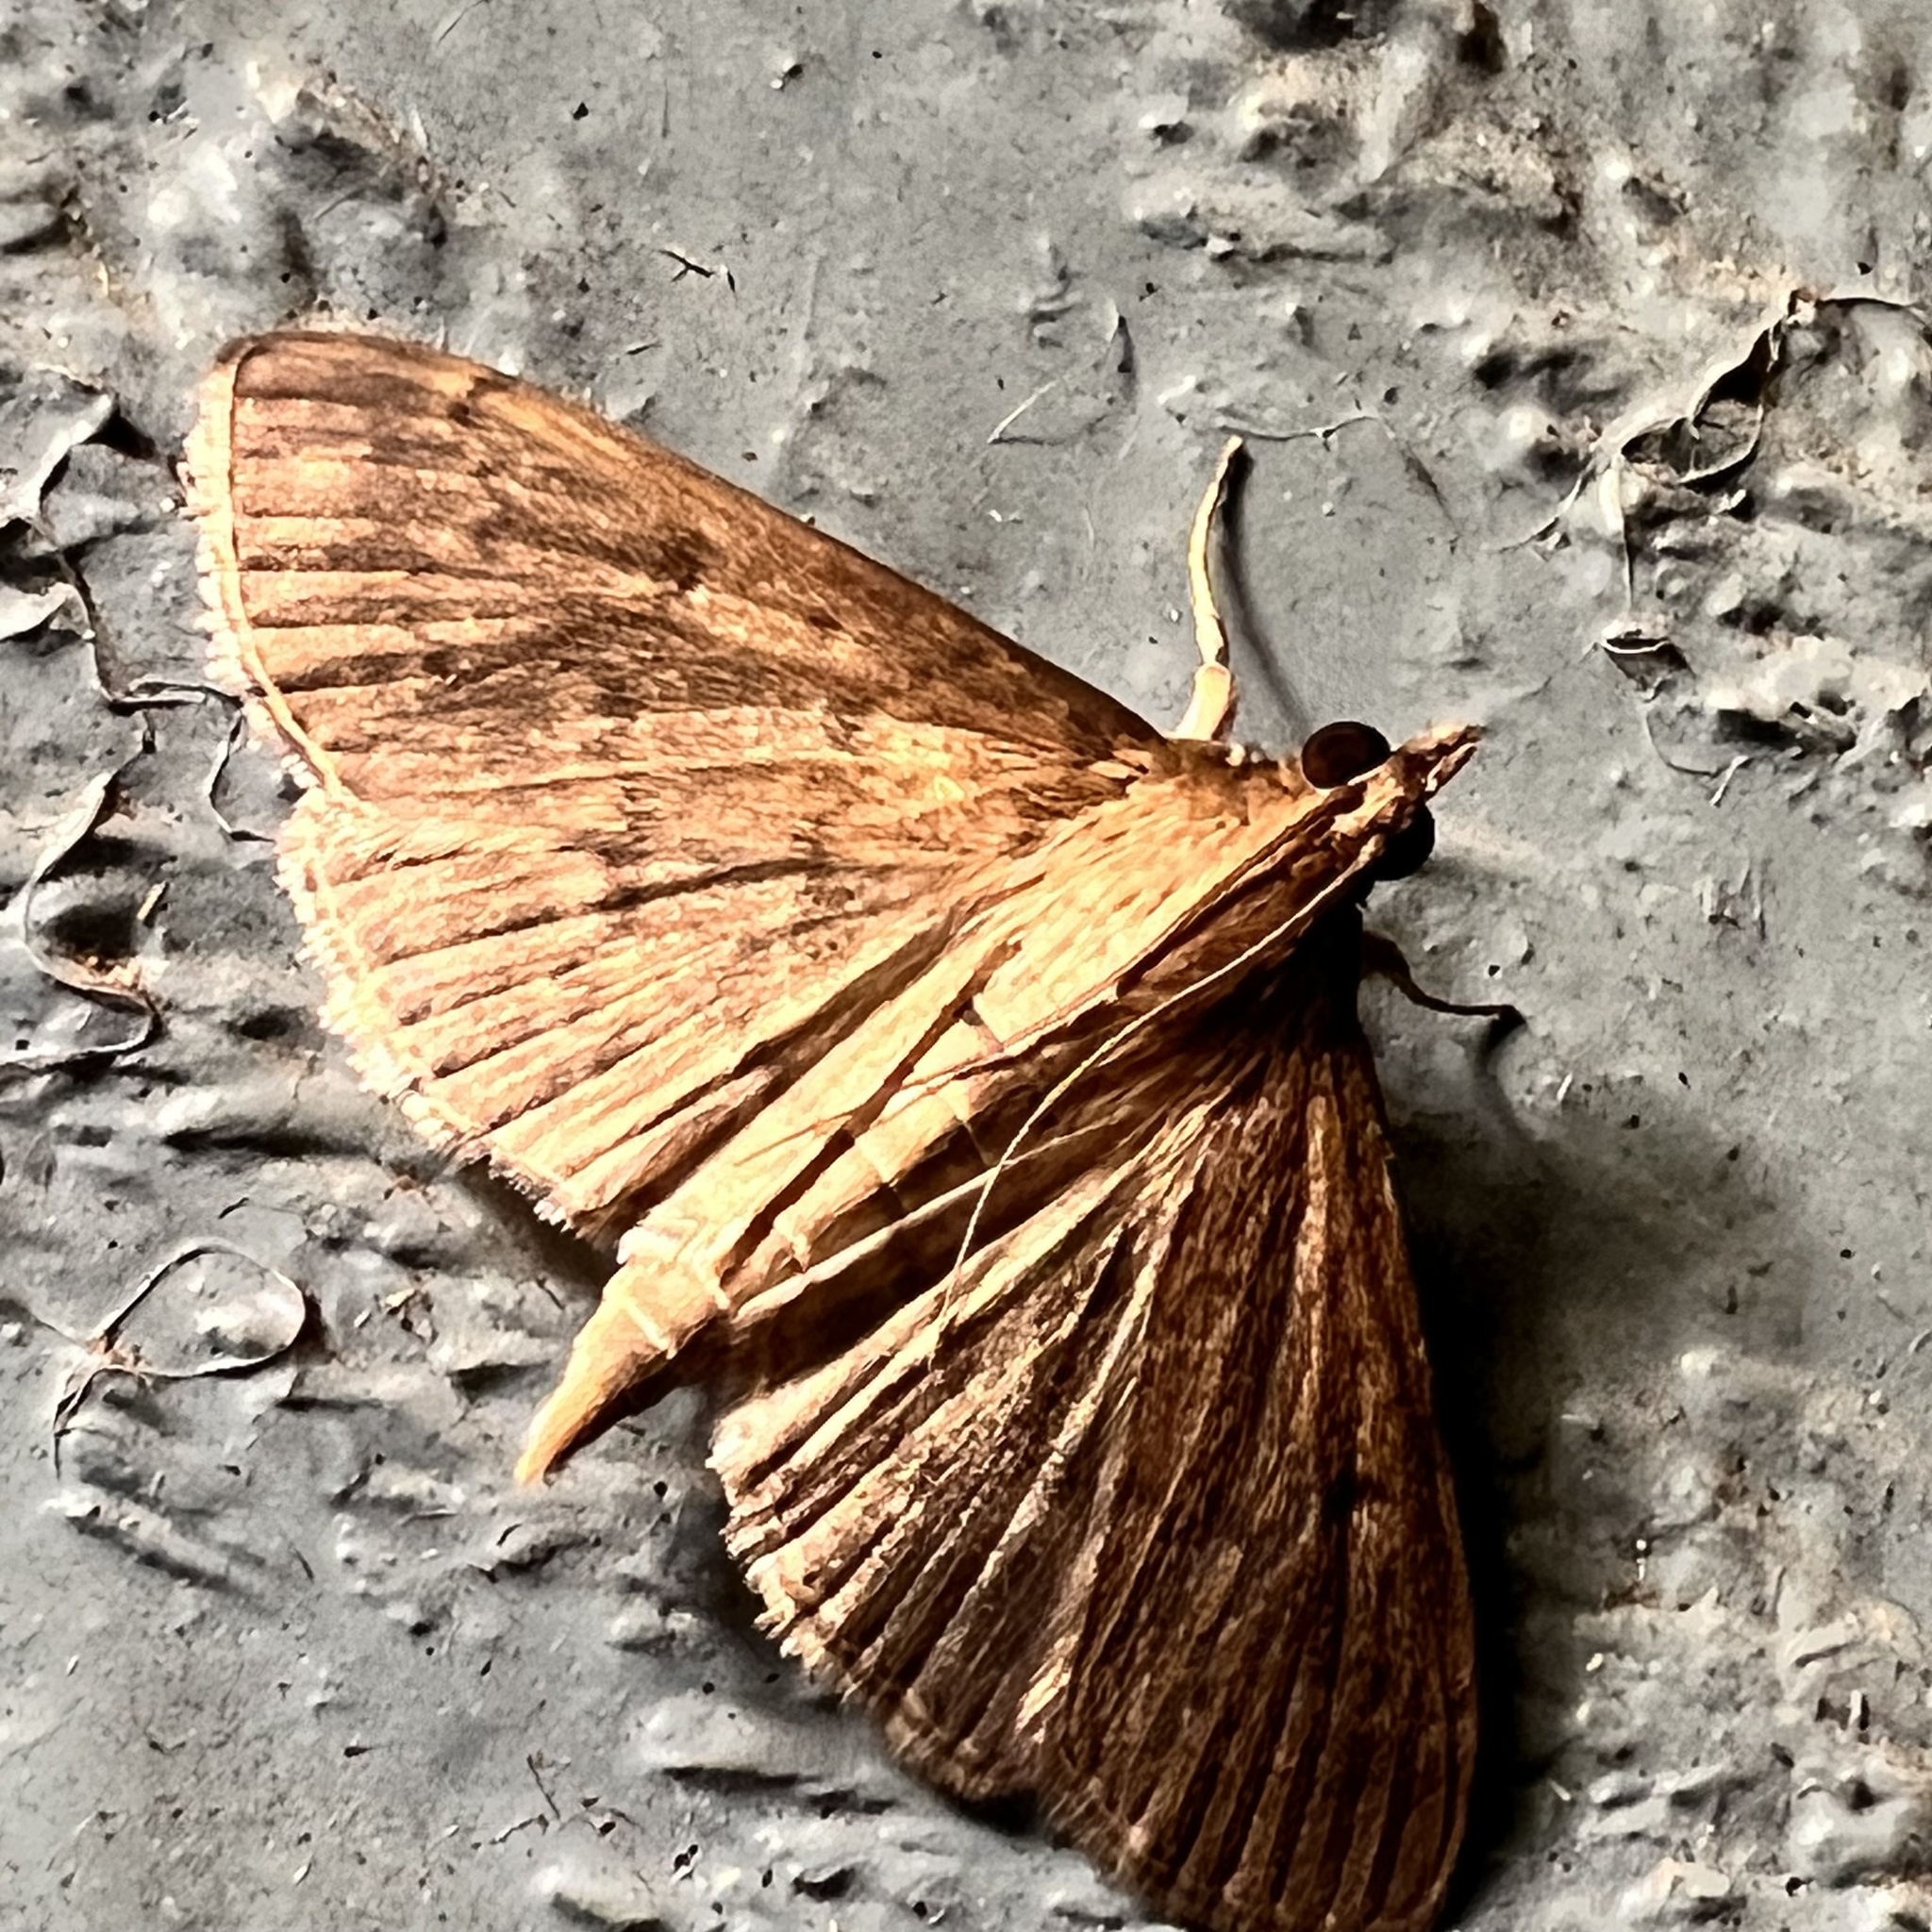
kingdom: Animalia
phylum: Arthropoda
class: Insecta
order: Lepidoptera
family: Crambidae
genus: Herpetogramma
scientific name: Herpetogramma licarsisalis
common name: Grass webworm
